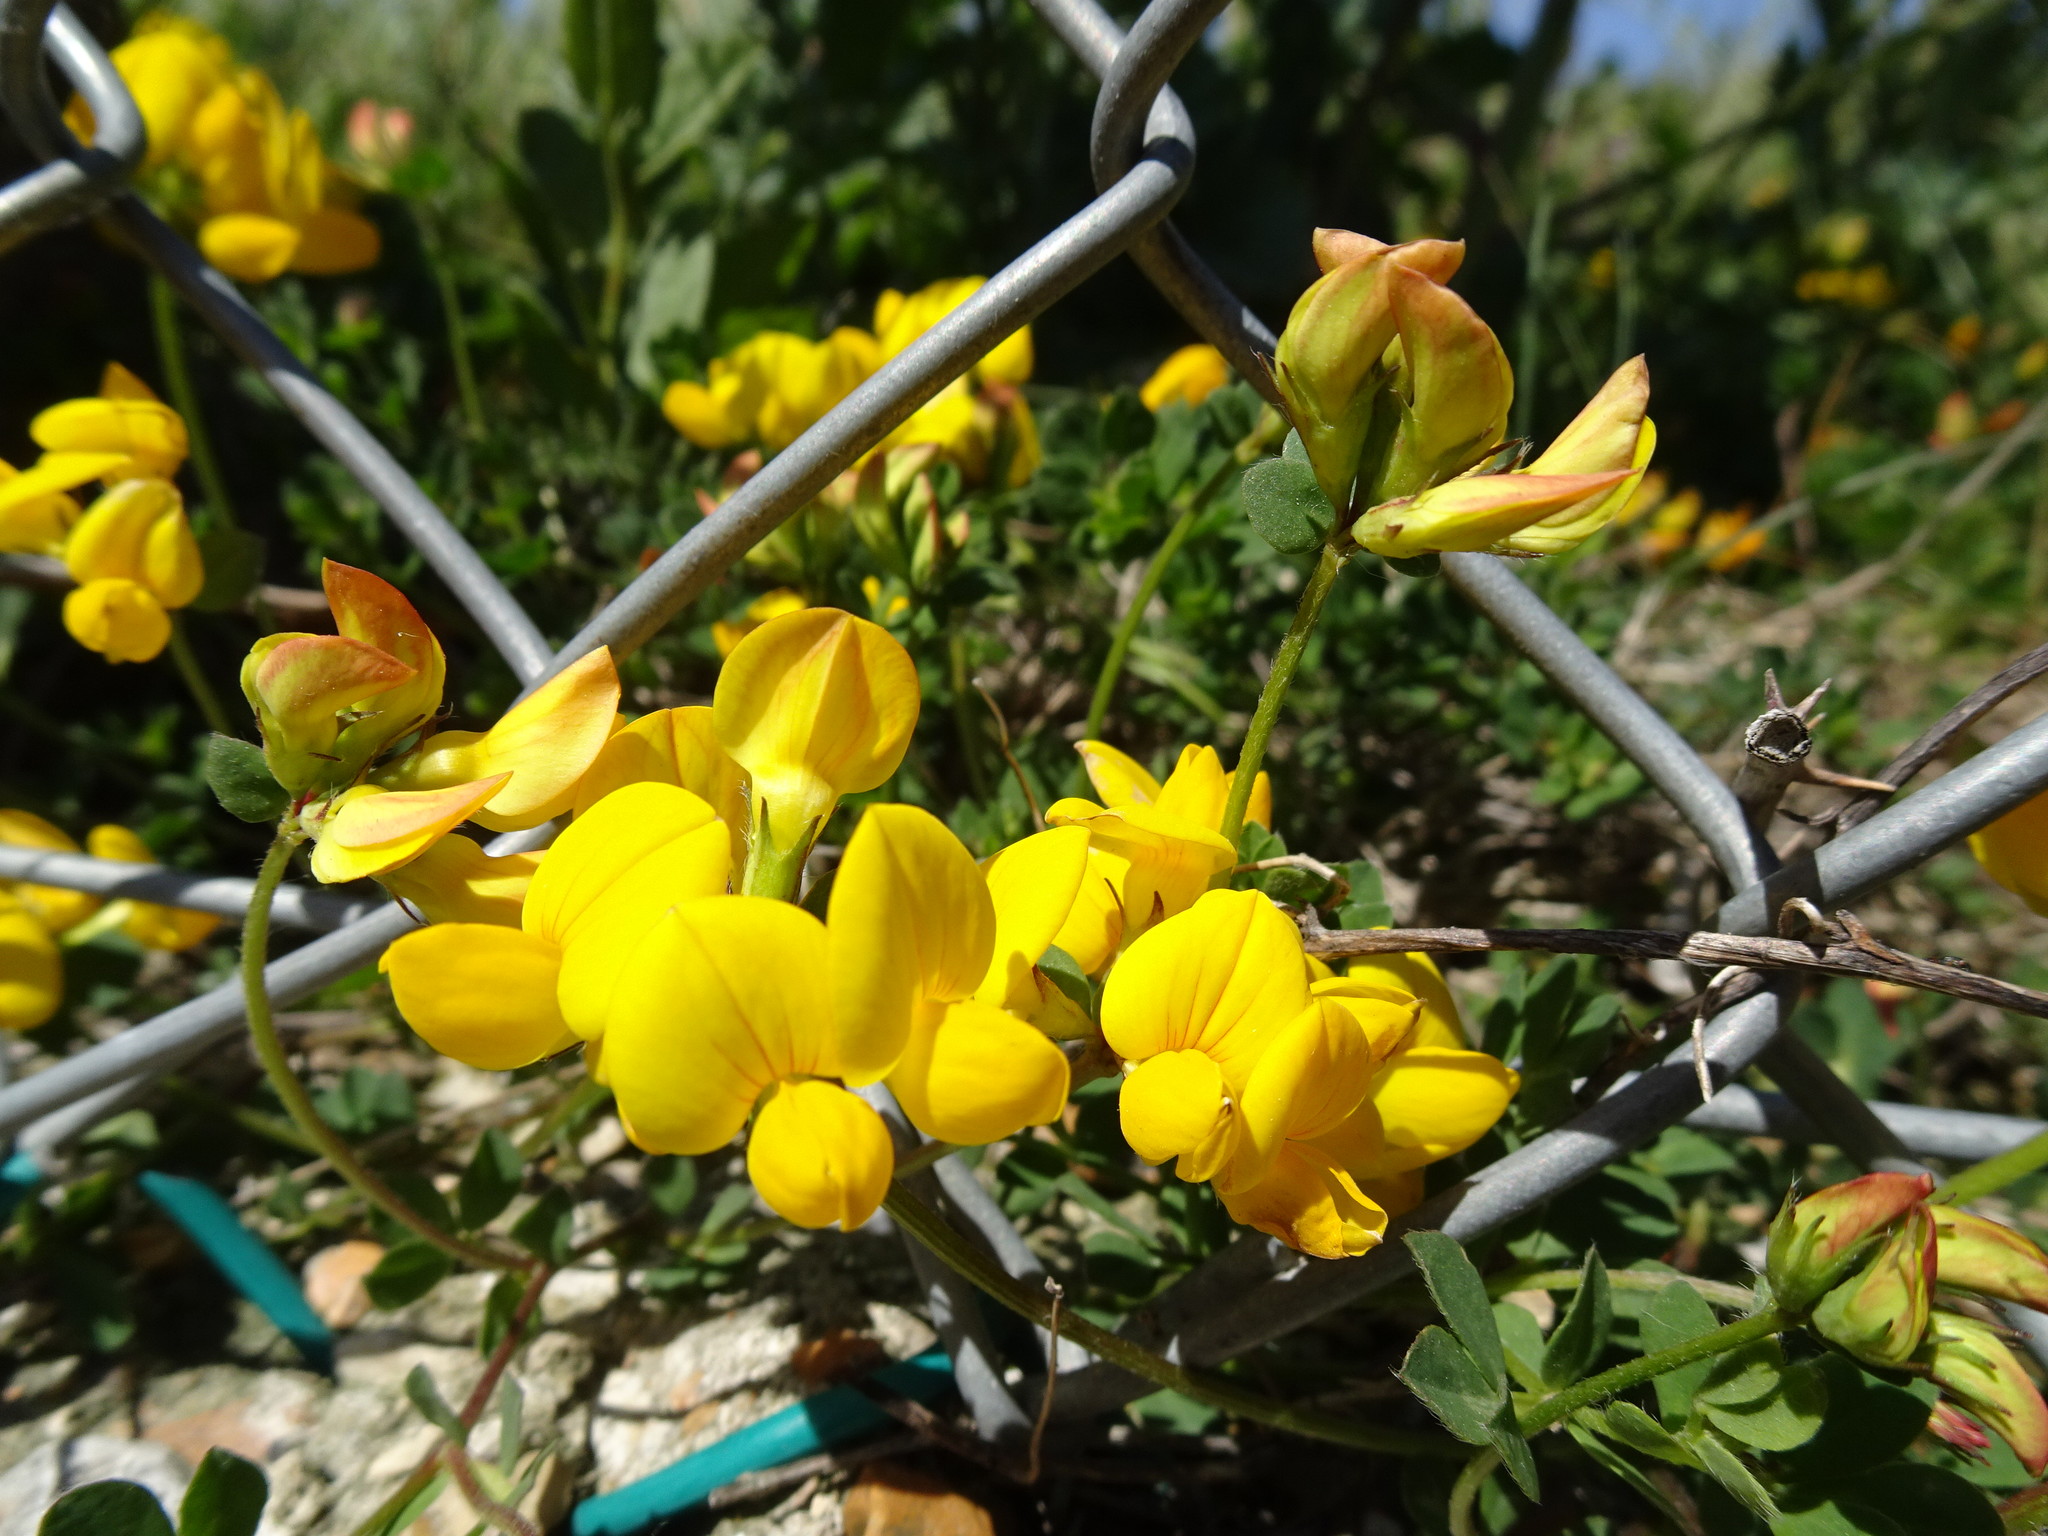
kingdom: Plantae
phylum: Tracheophyta
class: Magnoliopsida
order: Fabales
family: Fabaceae
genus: Lotus
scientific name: Lotus corniculatus
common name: Common bird's-foot-trefoil
